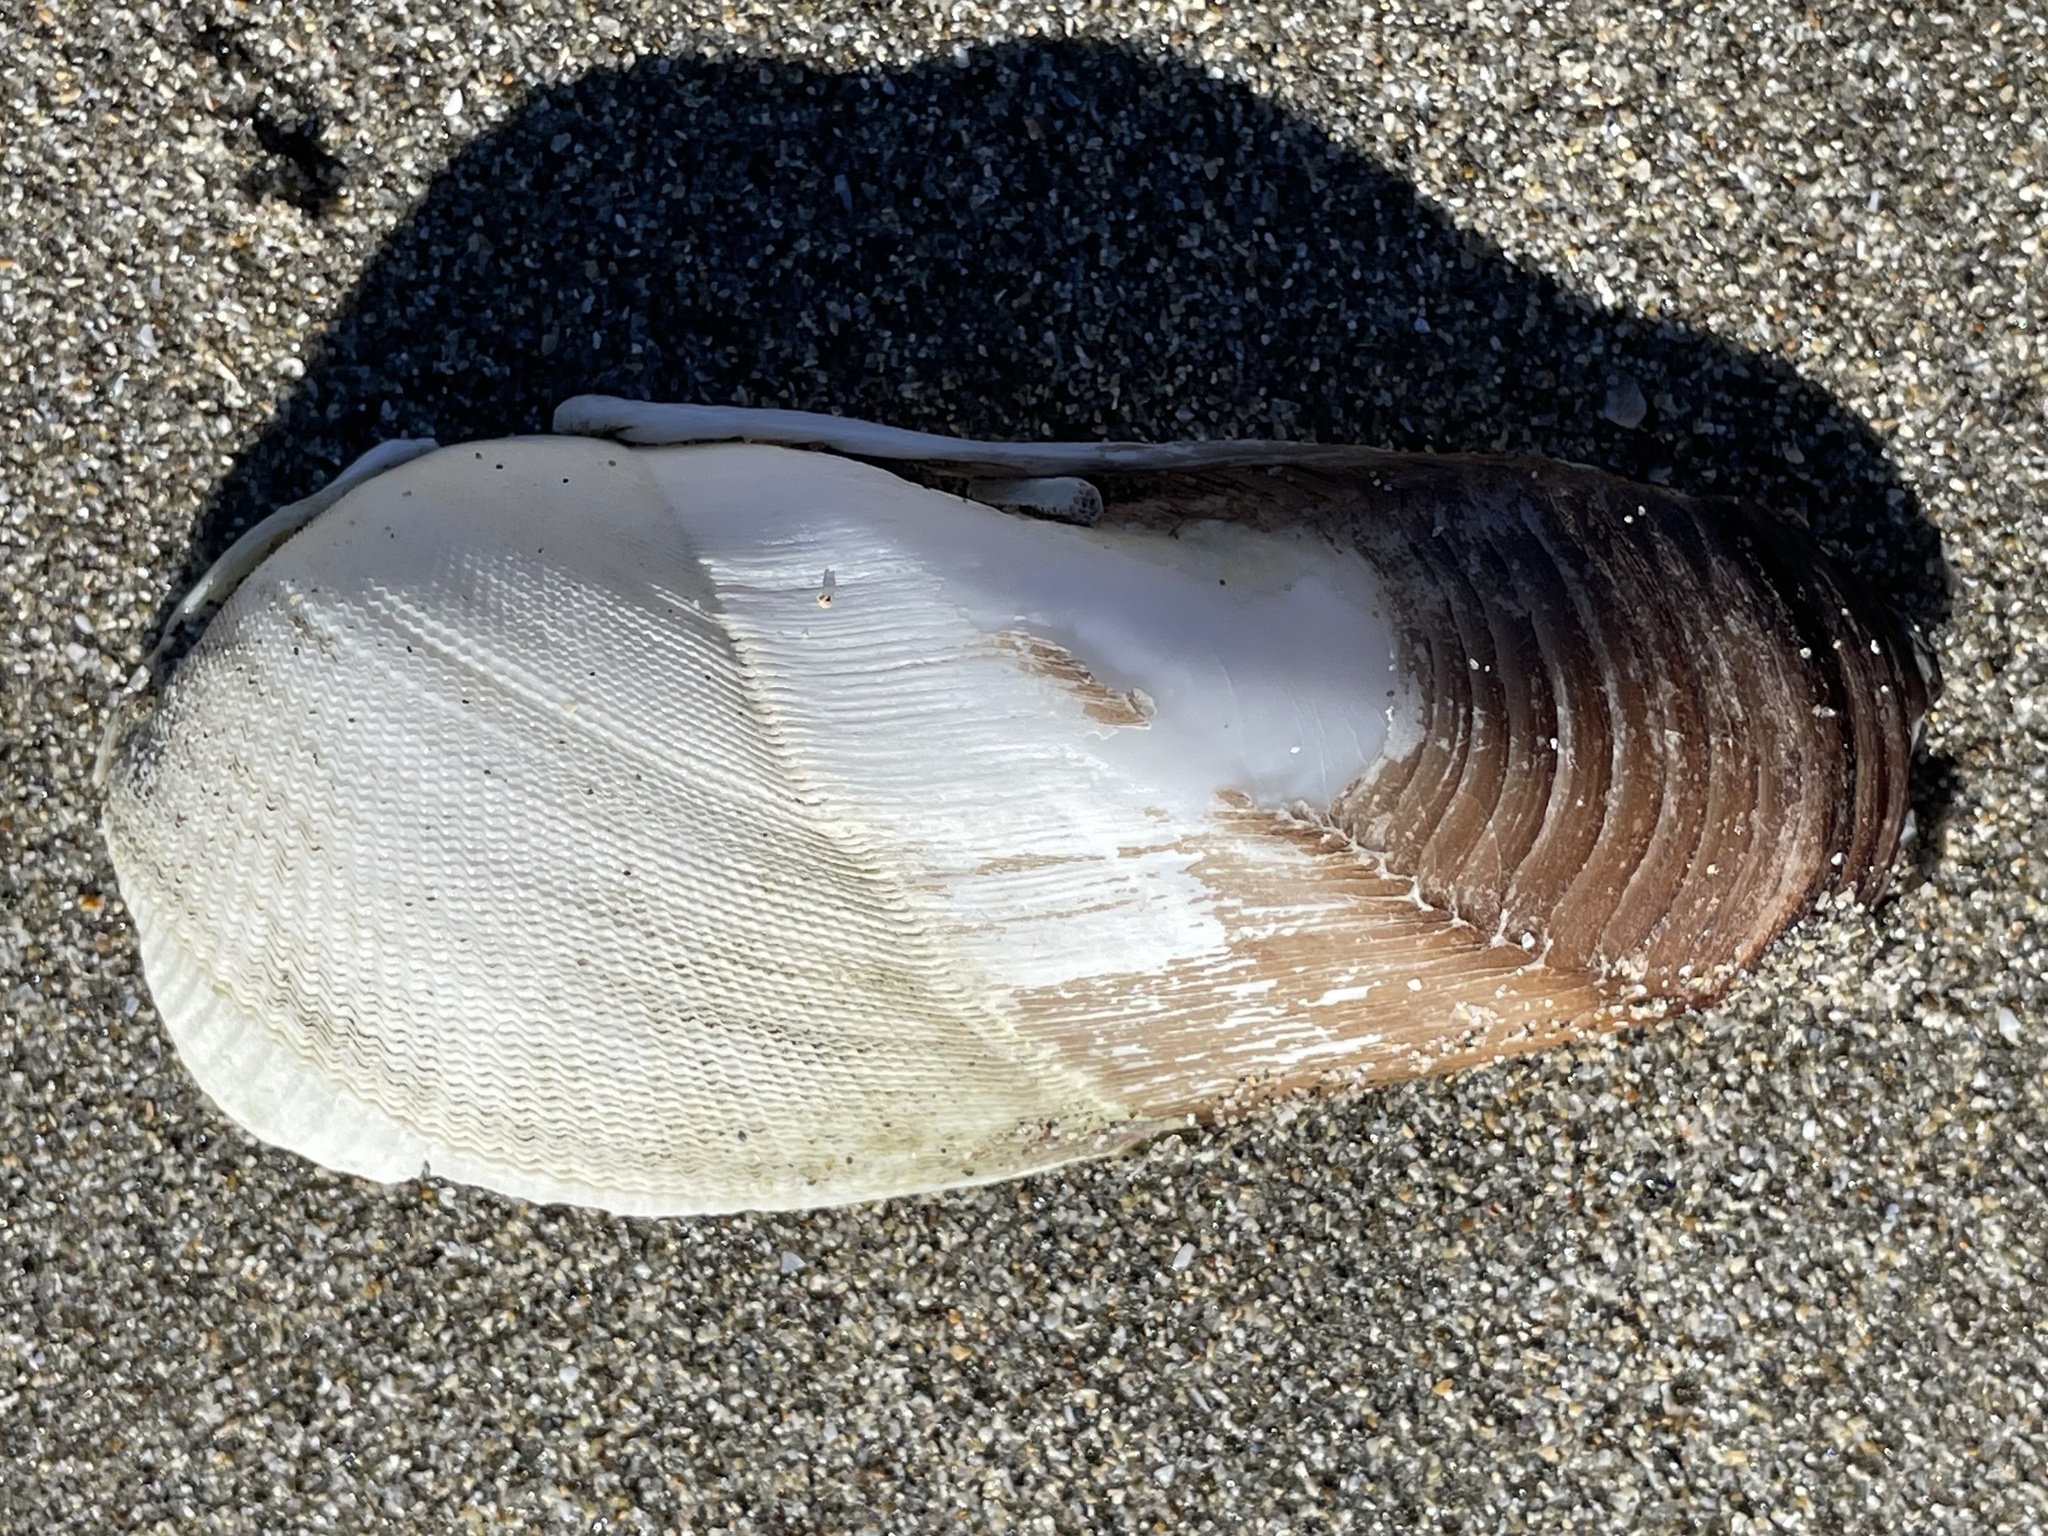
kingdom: Animalia
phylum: Mollusca
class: Bivalvia
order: Myida
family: Pholadidae
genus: Parapholas
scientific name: Parapholas californica
